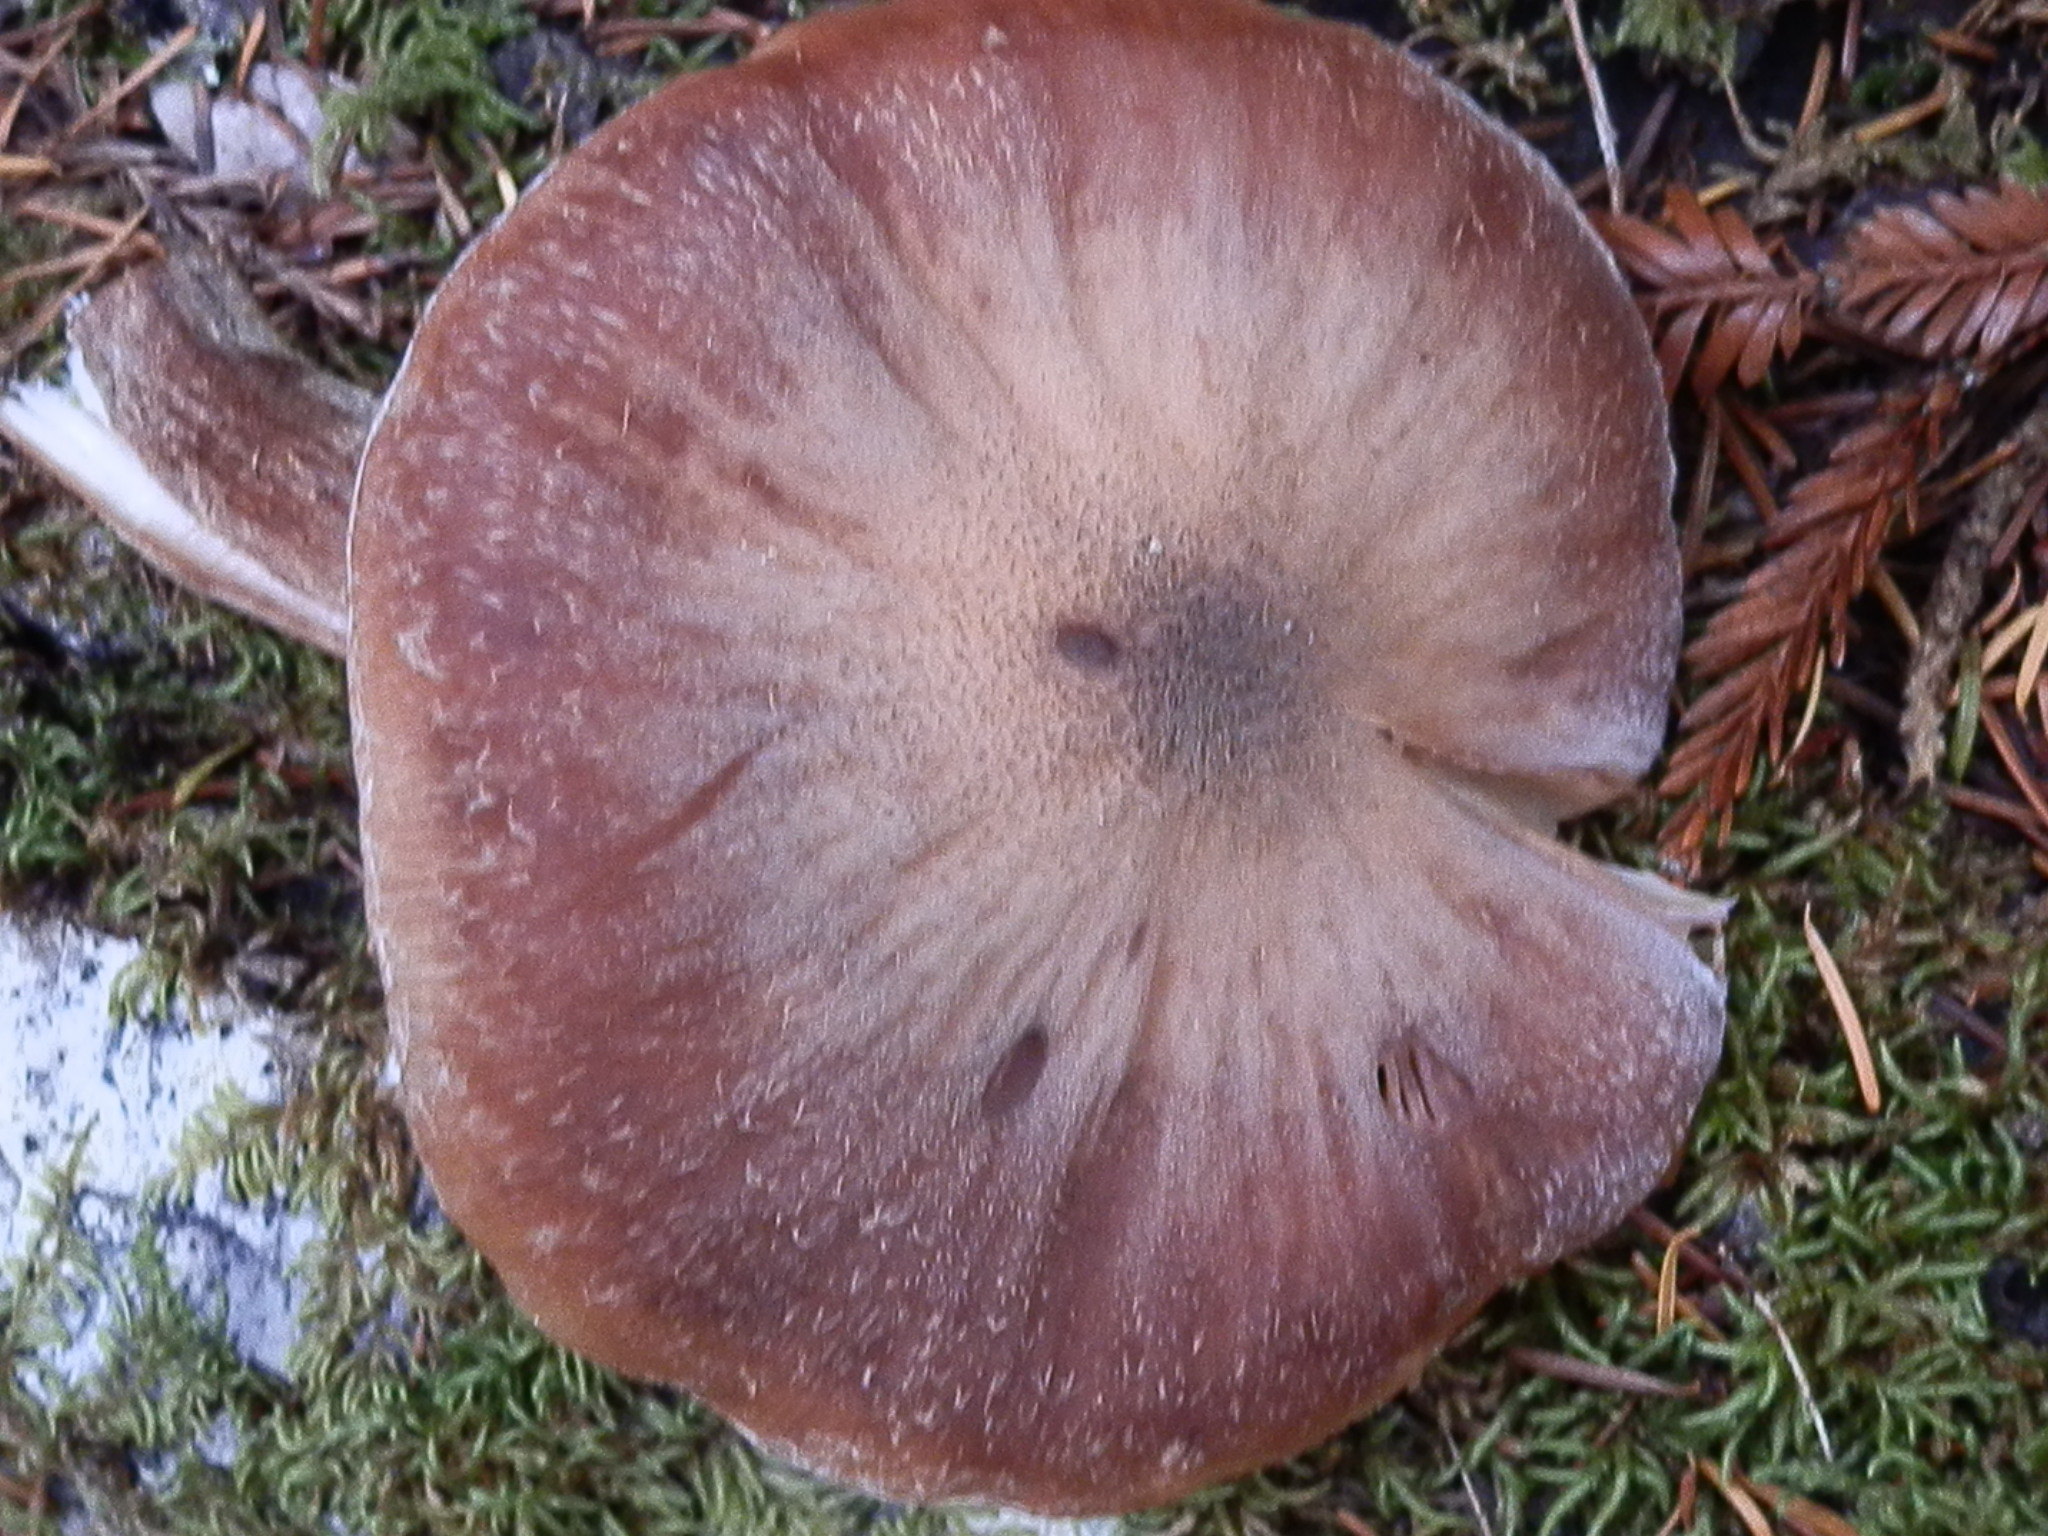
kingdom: Fungi
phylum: Basidiomycota
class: Agaricomycetes
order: Agaricales
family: Physalacriaceae
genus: Armillaria
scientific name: Armillaria sinapina
